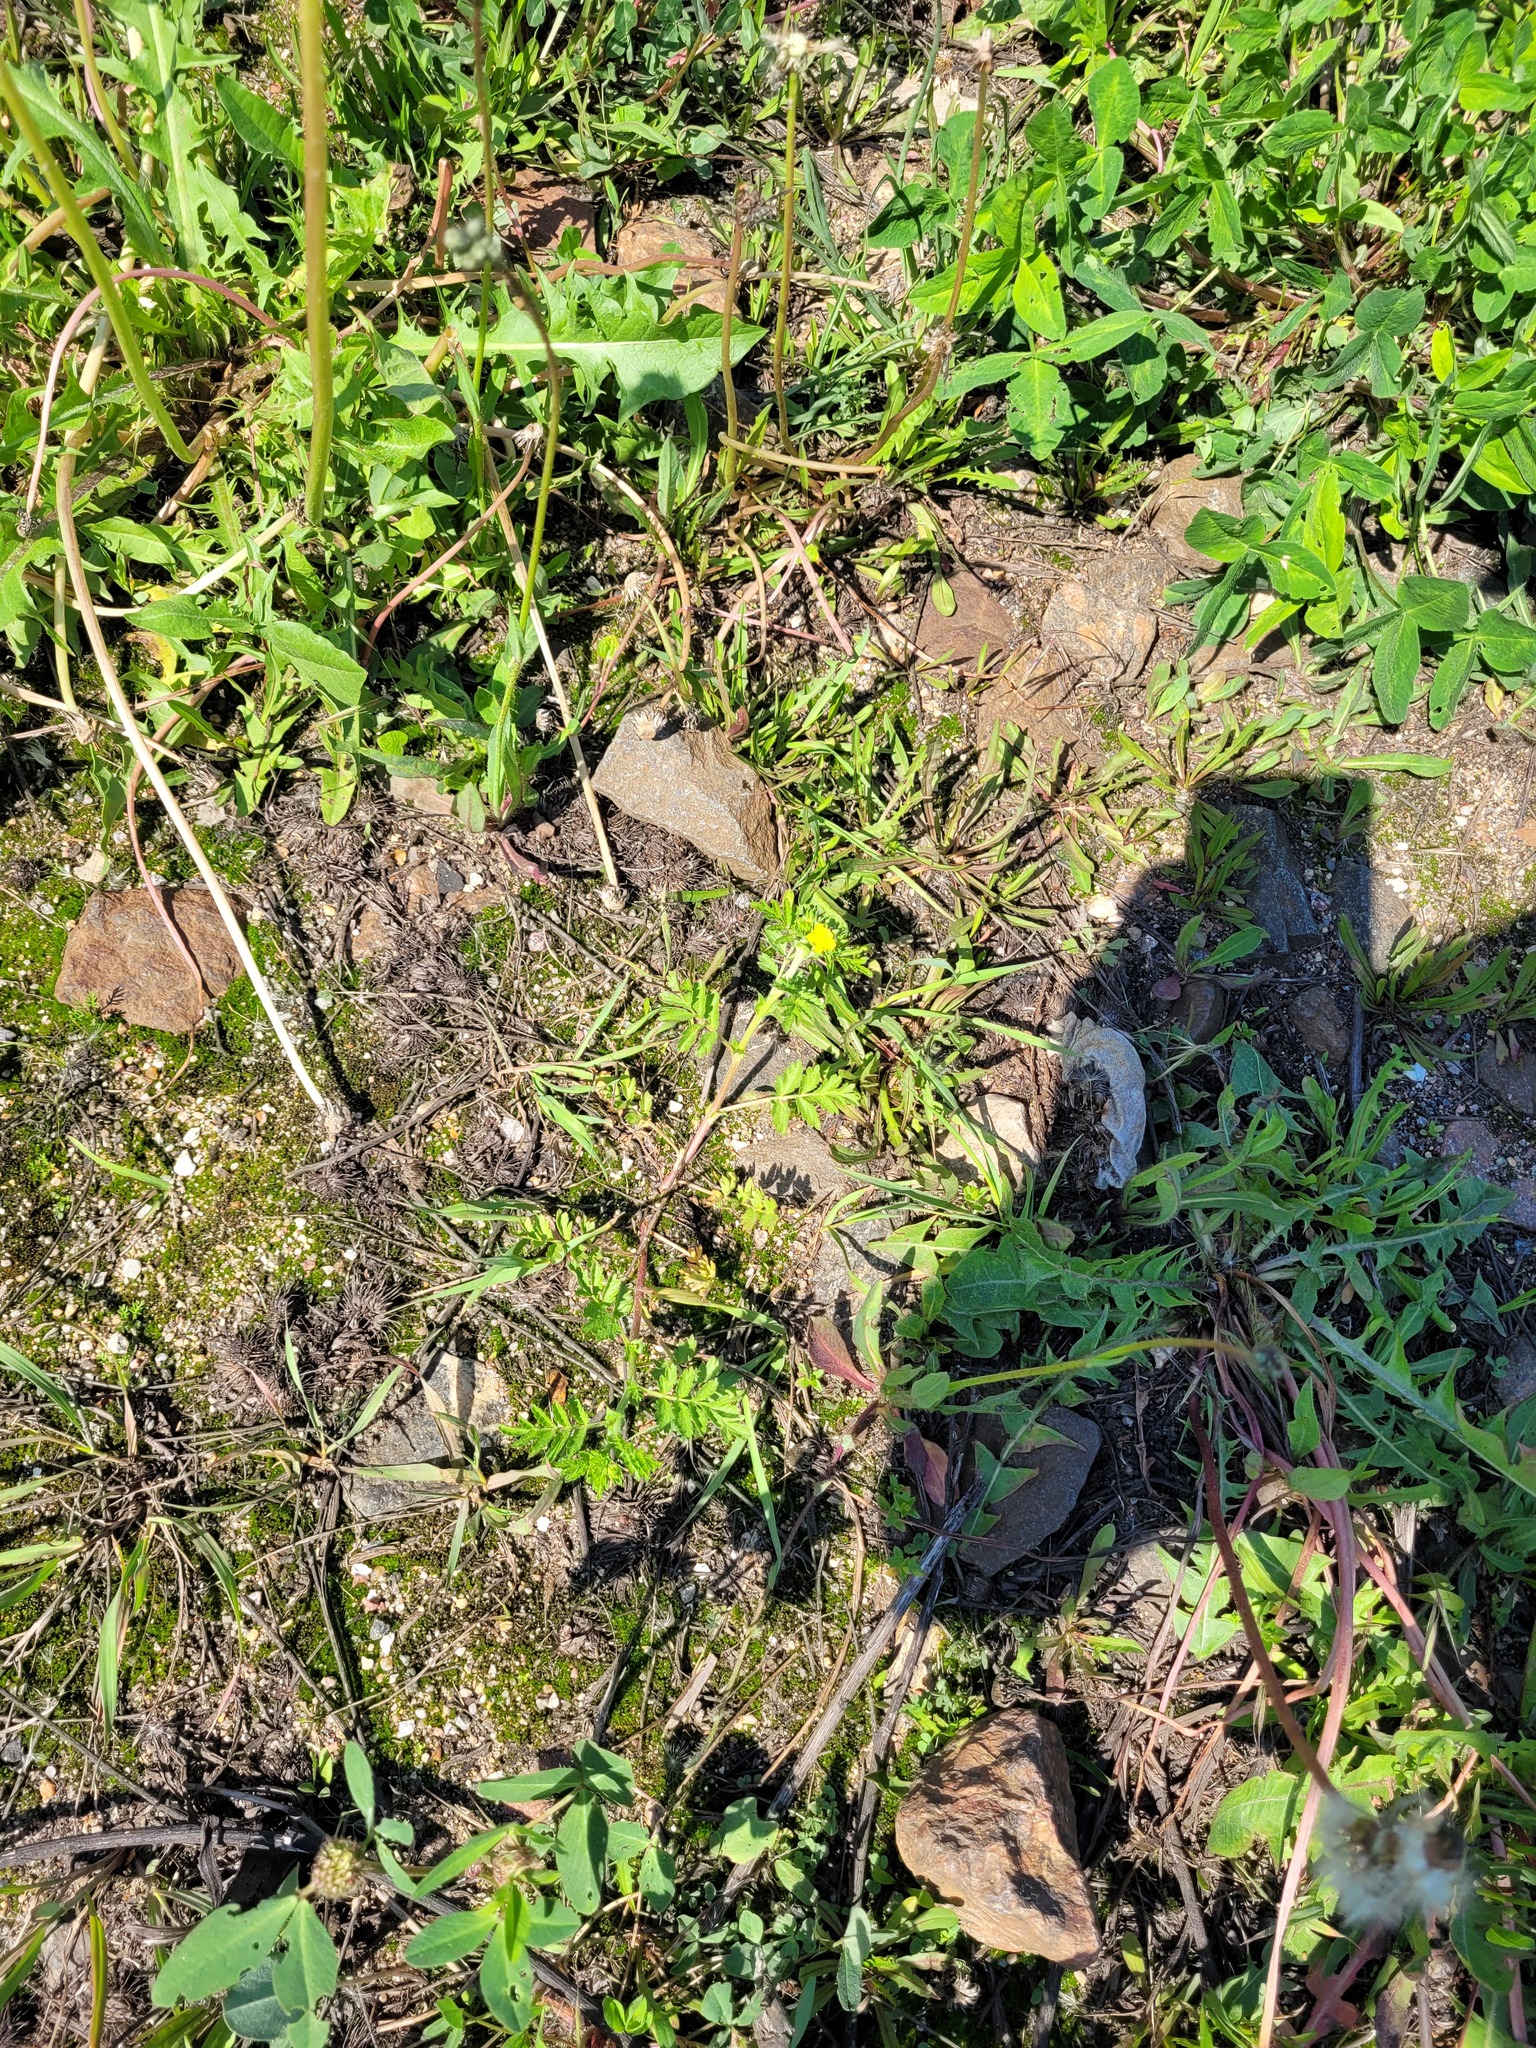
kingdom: Plantae
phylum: Tracheophyta
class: Magnoliopsida
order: Rosales
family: Rosaceae
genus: Potentilla
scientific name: Potentilla supina
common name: Prostrate cinquefoil
